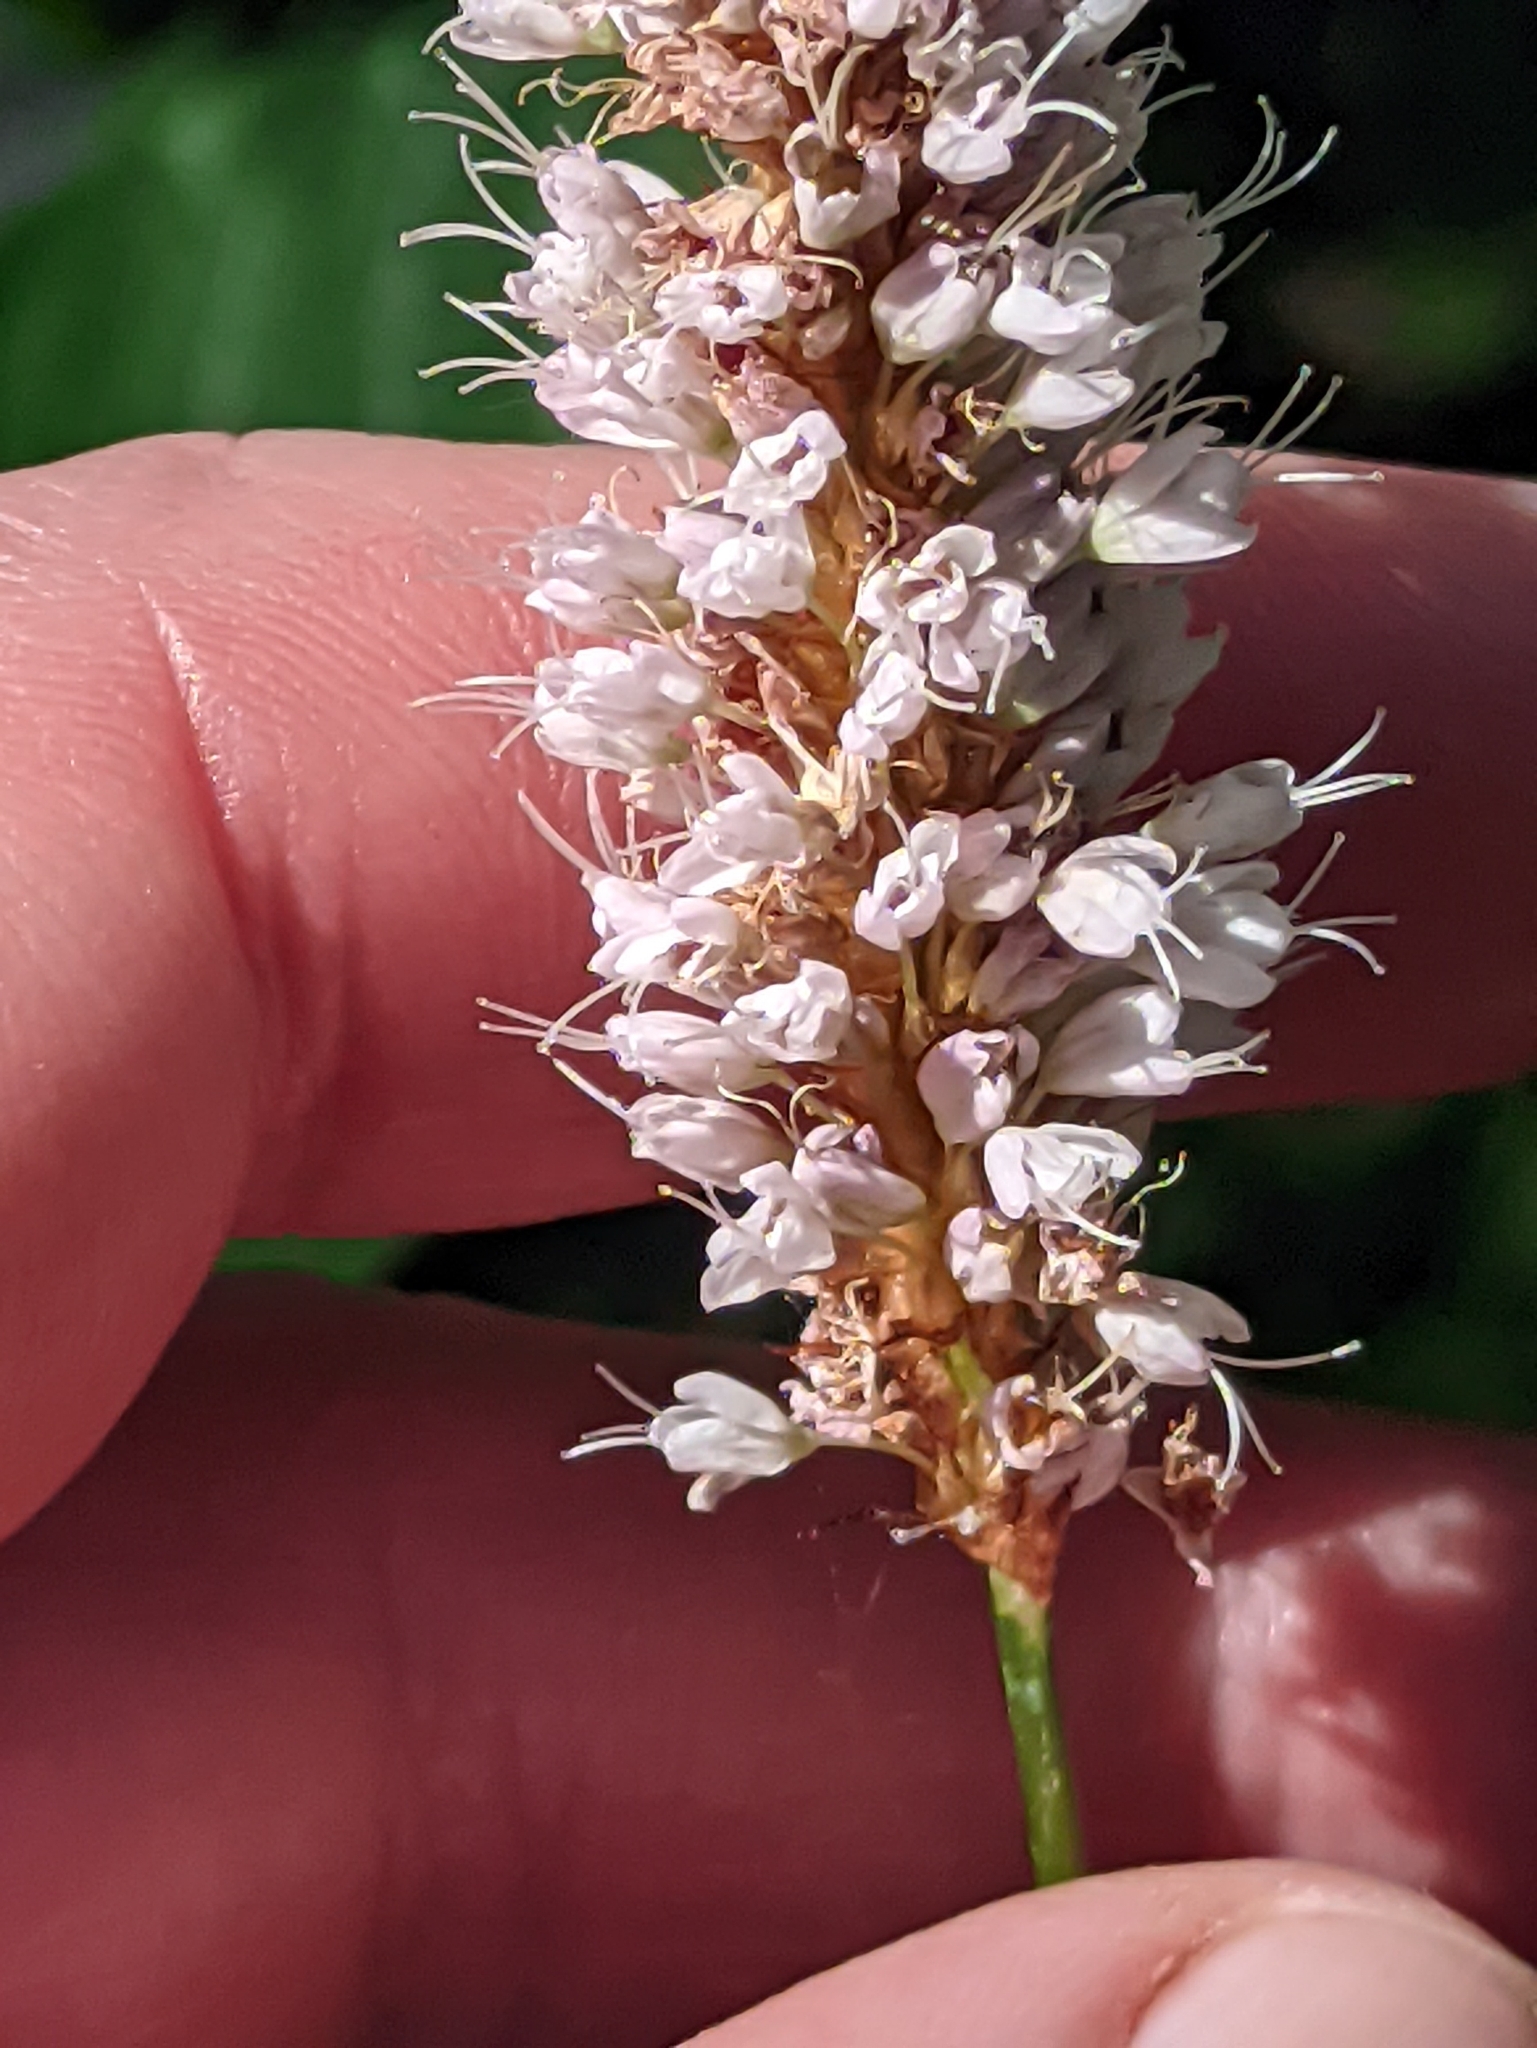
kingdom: Plantae
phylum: Tracheophyta
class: Magnoliopsida
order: Caryophyllales
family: Polygonaceae
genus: Bistorta
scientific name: Bistorta officinalis
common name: Common bistort
